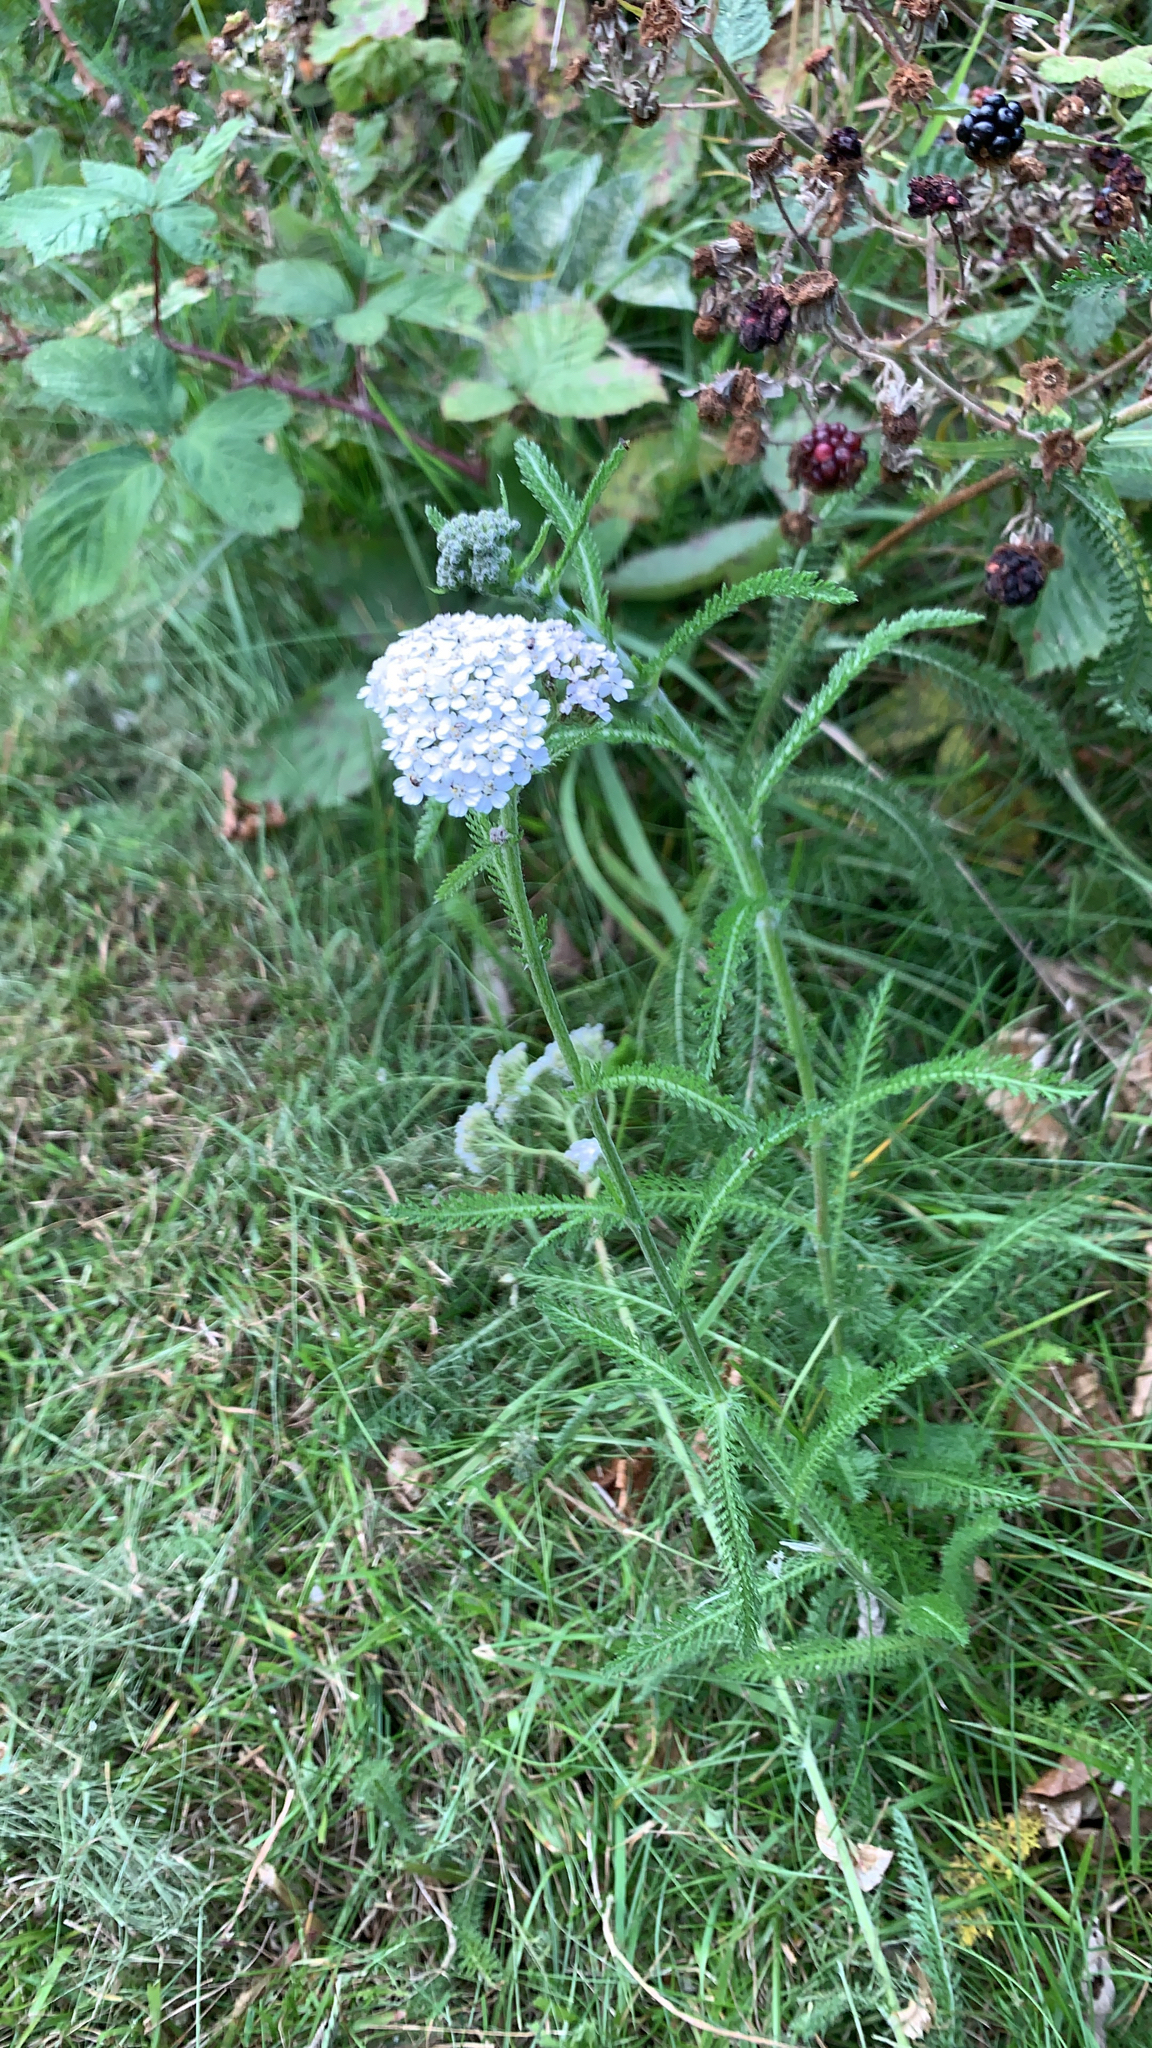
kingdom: Plantae
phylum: Tracheophyta
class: Magnoliopsida
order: Asterales
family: Asteraceae
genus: Achillea
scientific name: Achillea millefolium
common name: Yarrow
